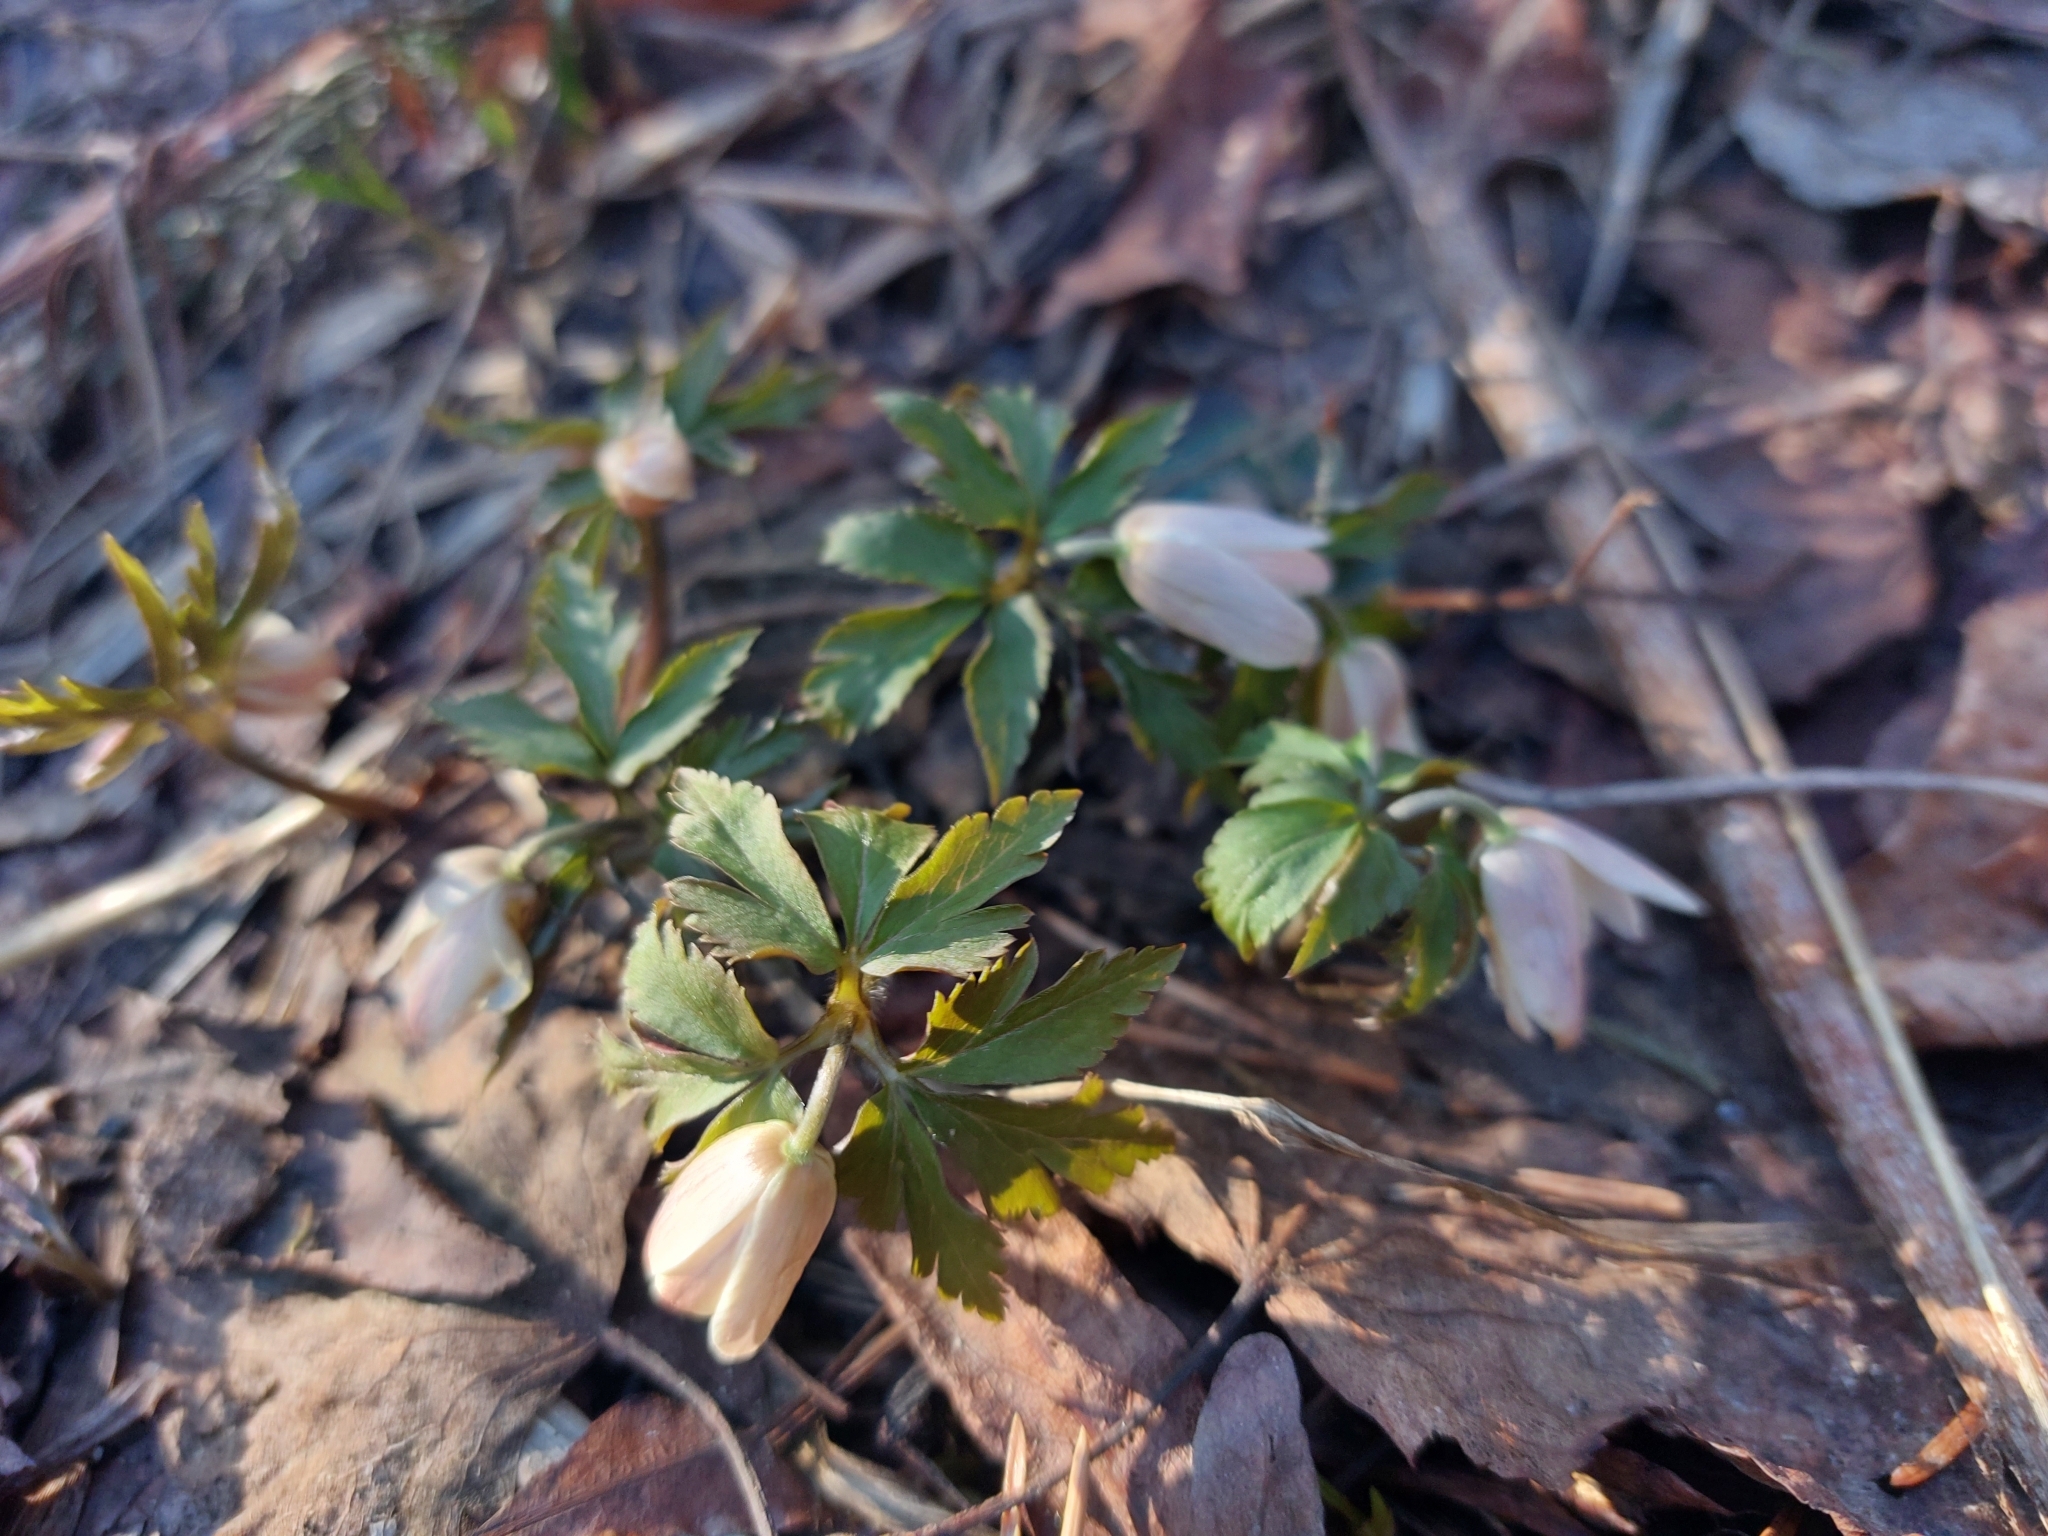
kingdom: Plantae
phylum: Tracheophyta
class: Magnoliopsida
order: Ranunculales
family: Ranunculaceae
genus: Anemone
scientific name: Anemone altaica
